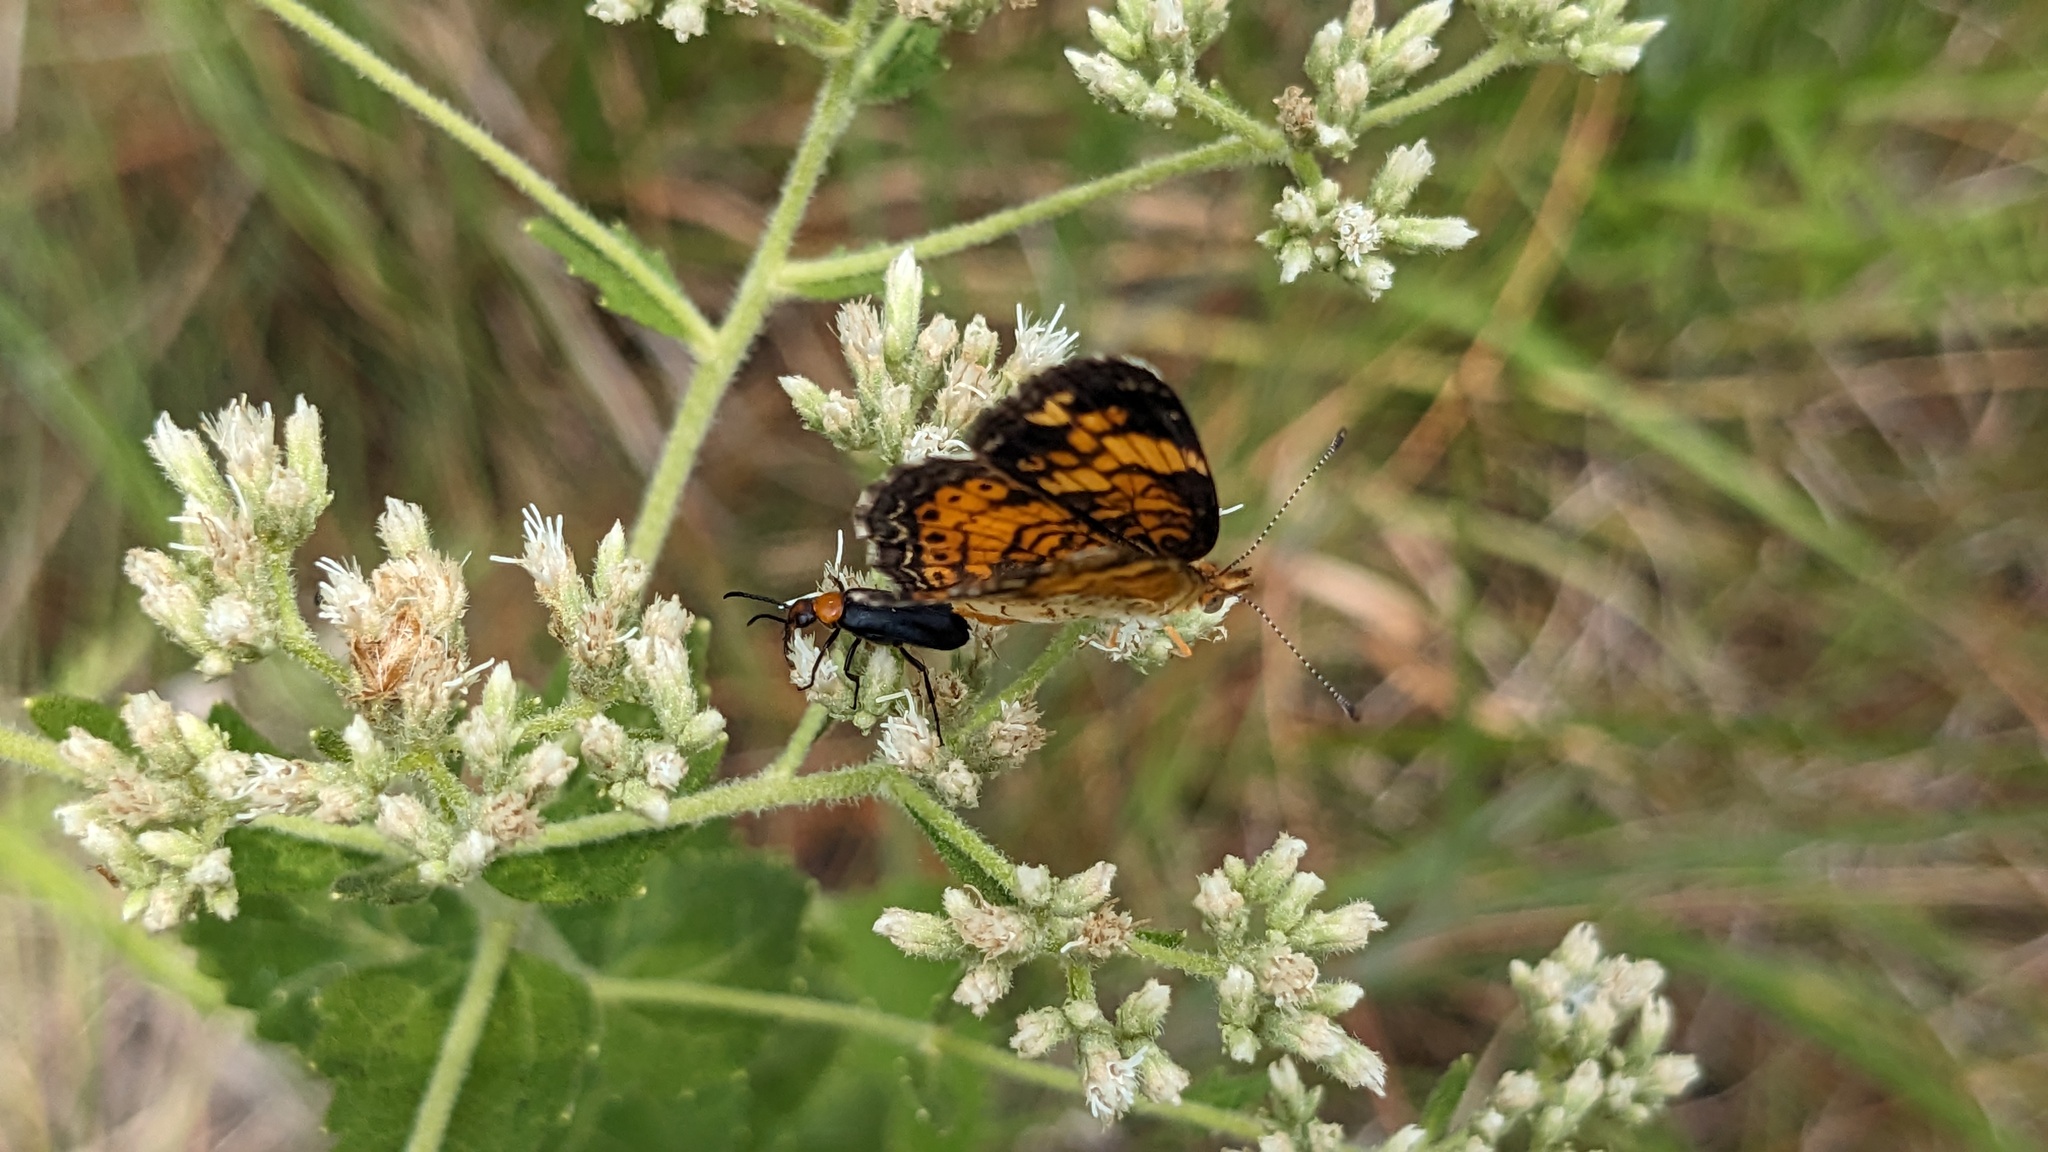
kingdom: Animalia
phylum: Arthropoda
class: Insecta
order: Lepidoptera
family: Nymphalidae
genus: Phyciodes
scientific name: Phyciodes tharos
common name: Pearl crescent
